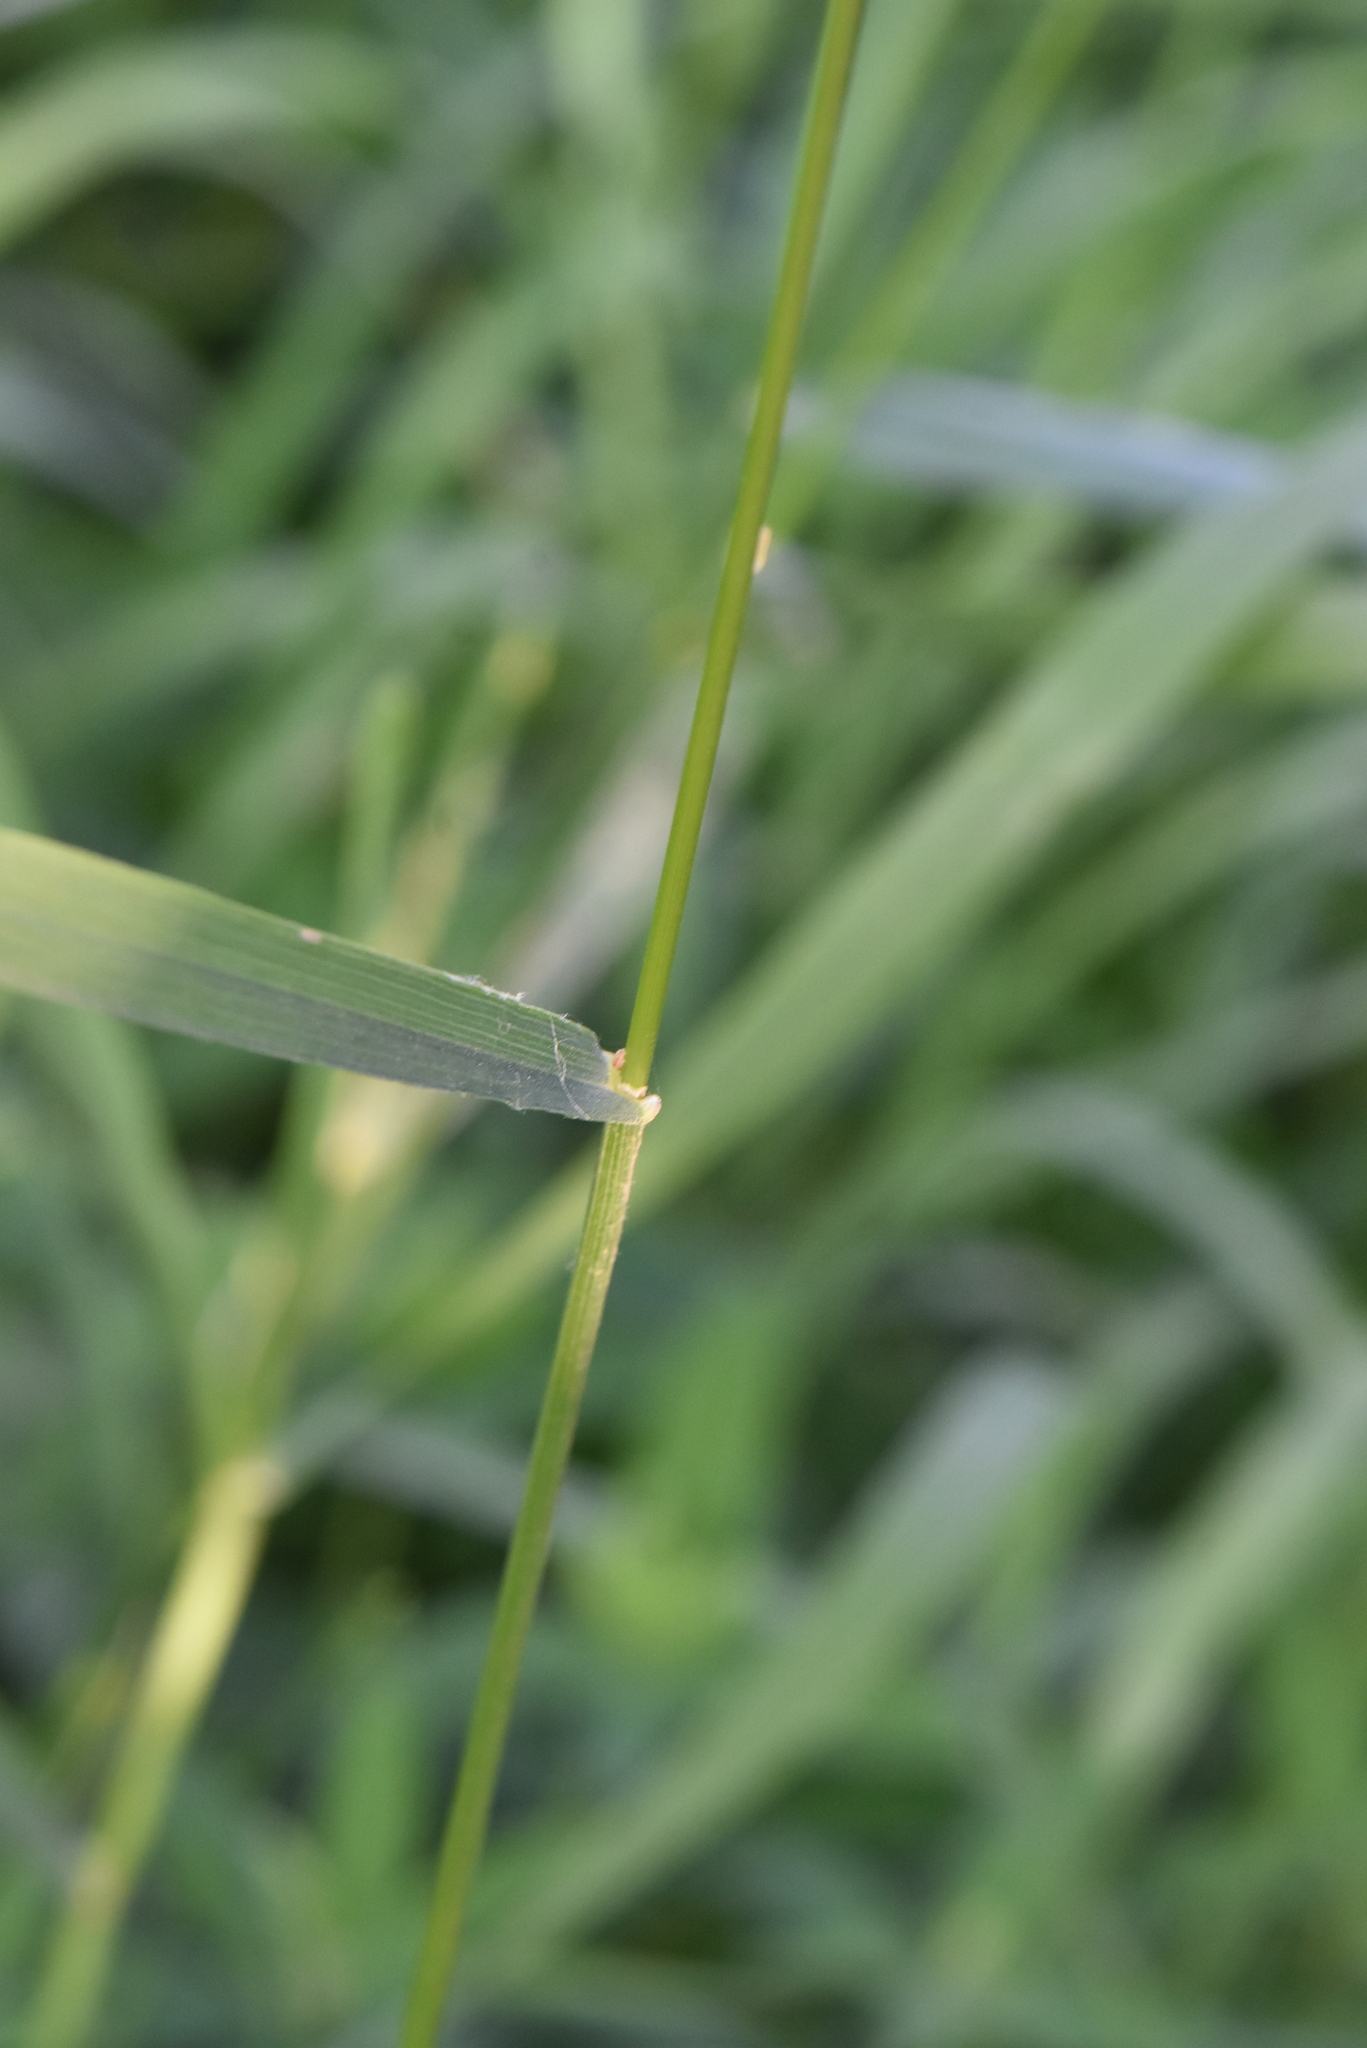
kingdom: Plantae
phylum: Tracheophyta
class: Liliopsida
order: Poales
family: Poaceae
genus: Bromus
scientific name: Bromus inermis
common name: Smooth brome
